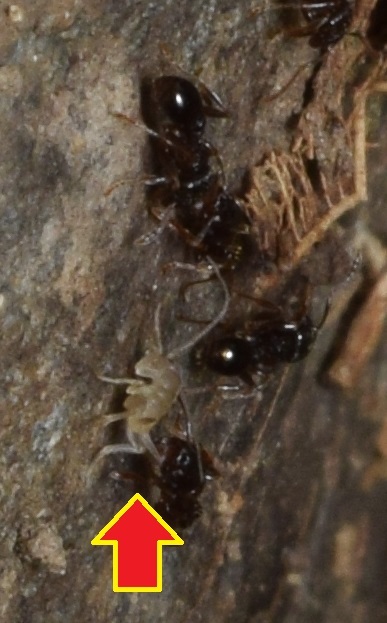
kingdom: Animalia
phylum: Arthropoda
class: Insecta
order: Orthoptera
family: Myrmecophilidae
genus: Myrmecophilus
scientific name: Myrmecophilus tetramorii
